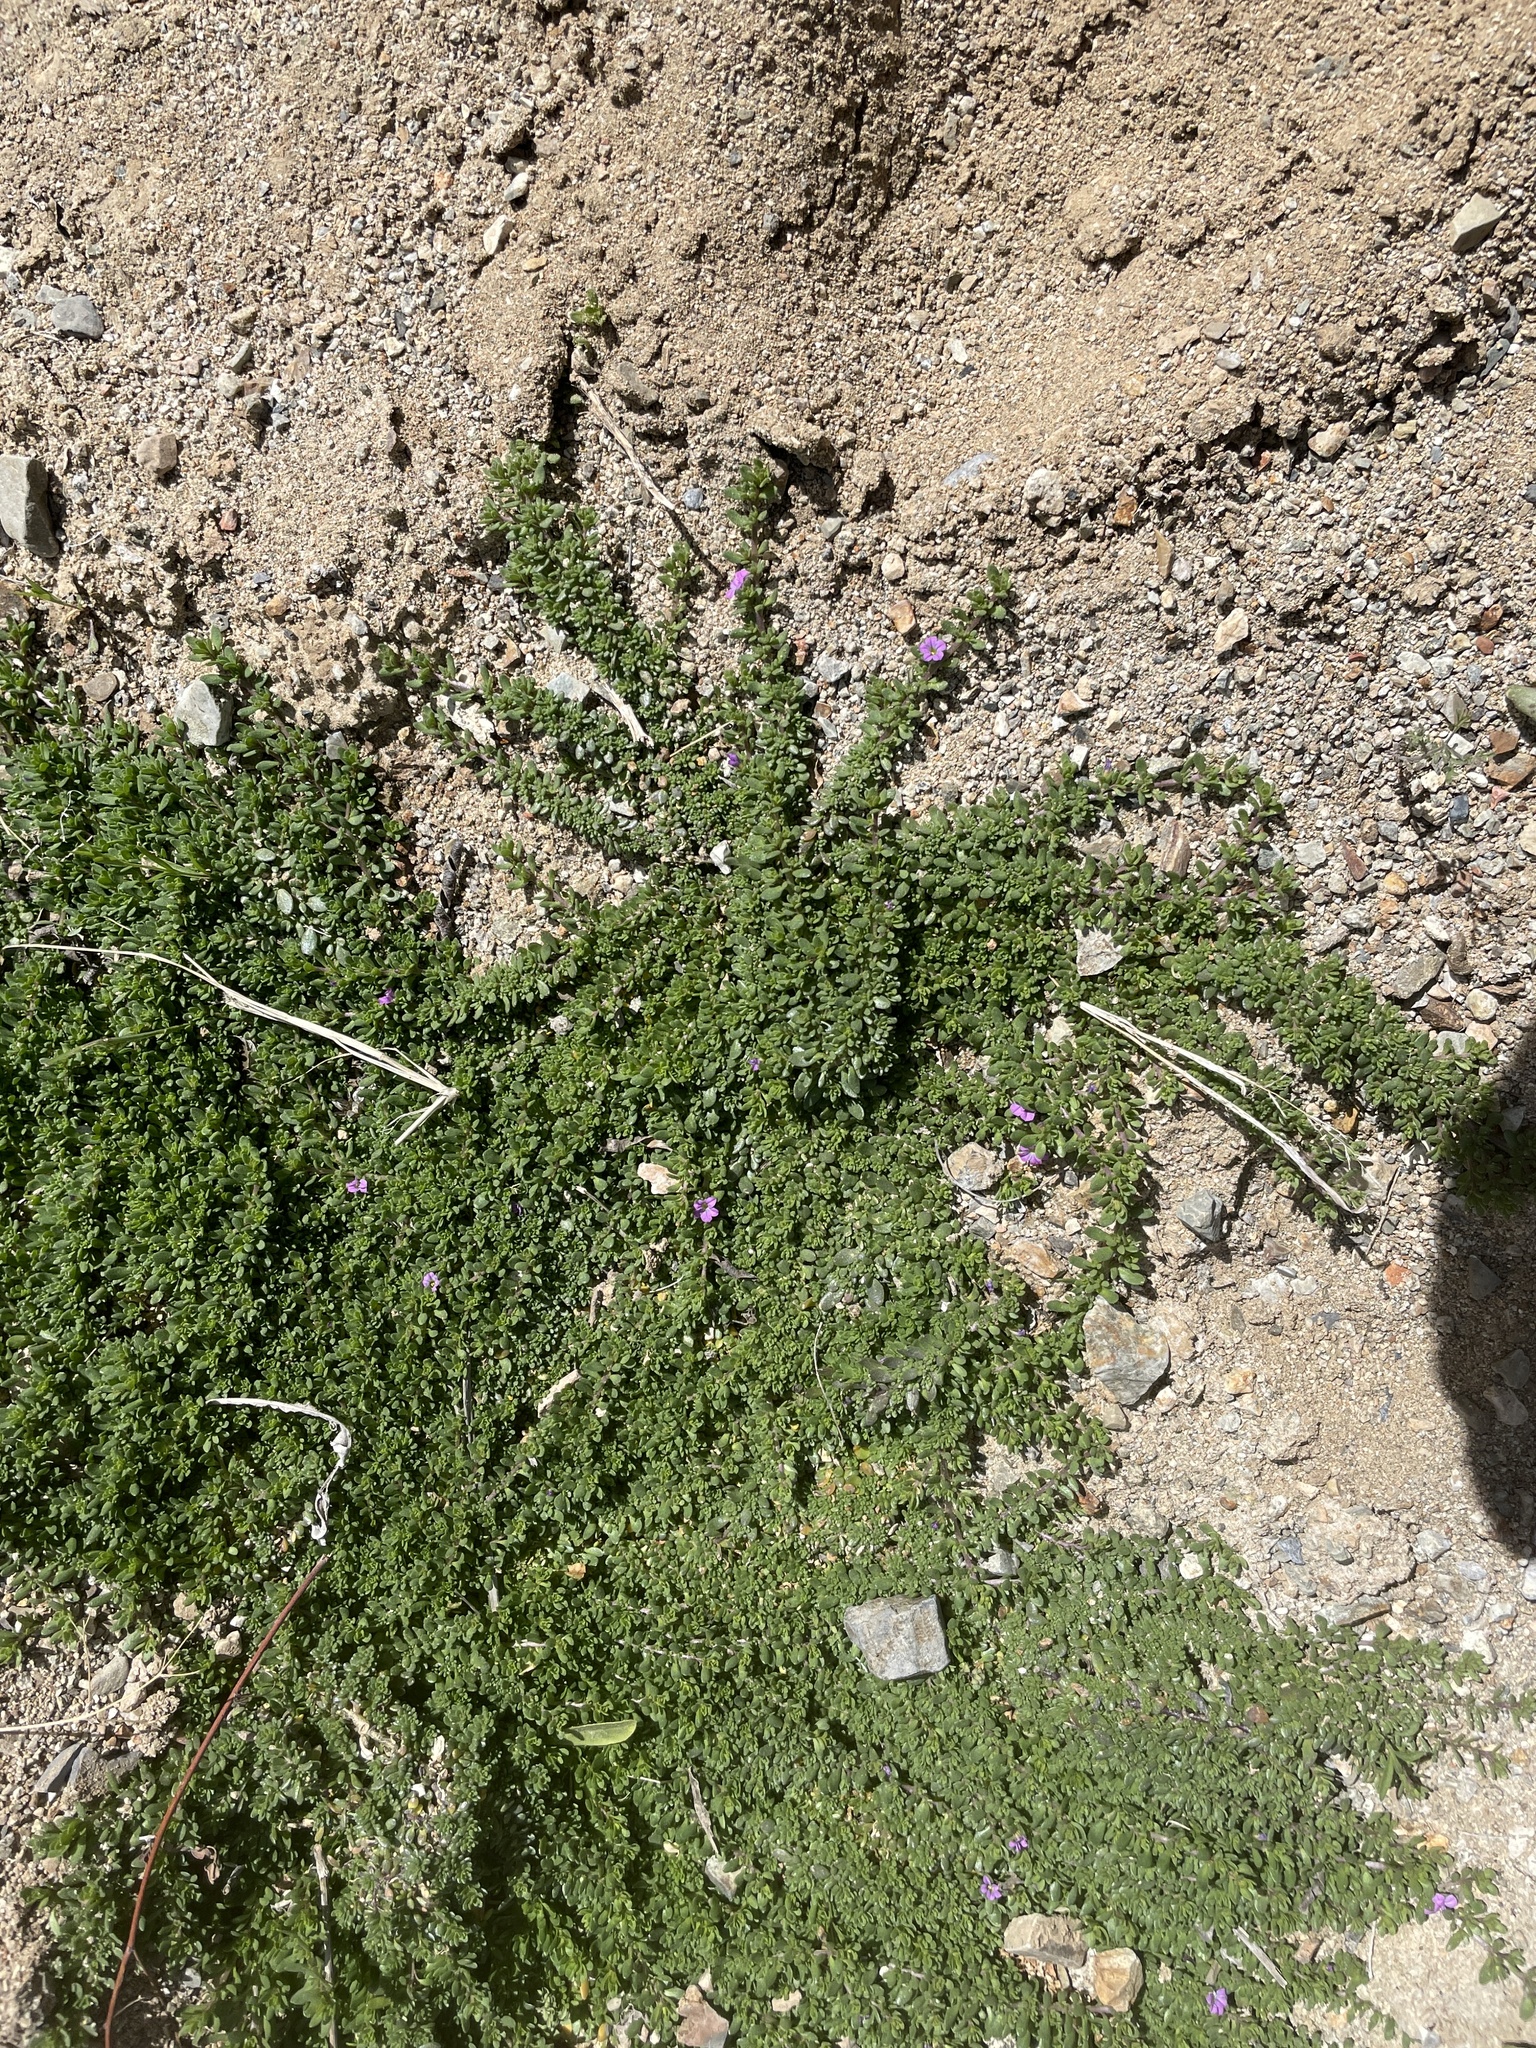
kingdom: Plantae
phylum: Tracheophyta
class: Magnoliopsida
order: Solanales
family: Solanaceae
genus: Calibrachoa
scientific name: Calibrachoa parviflora
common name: Seaside petunia
